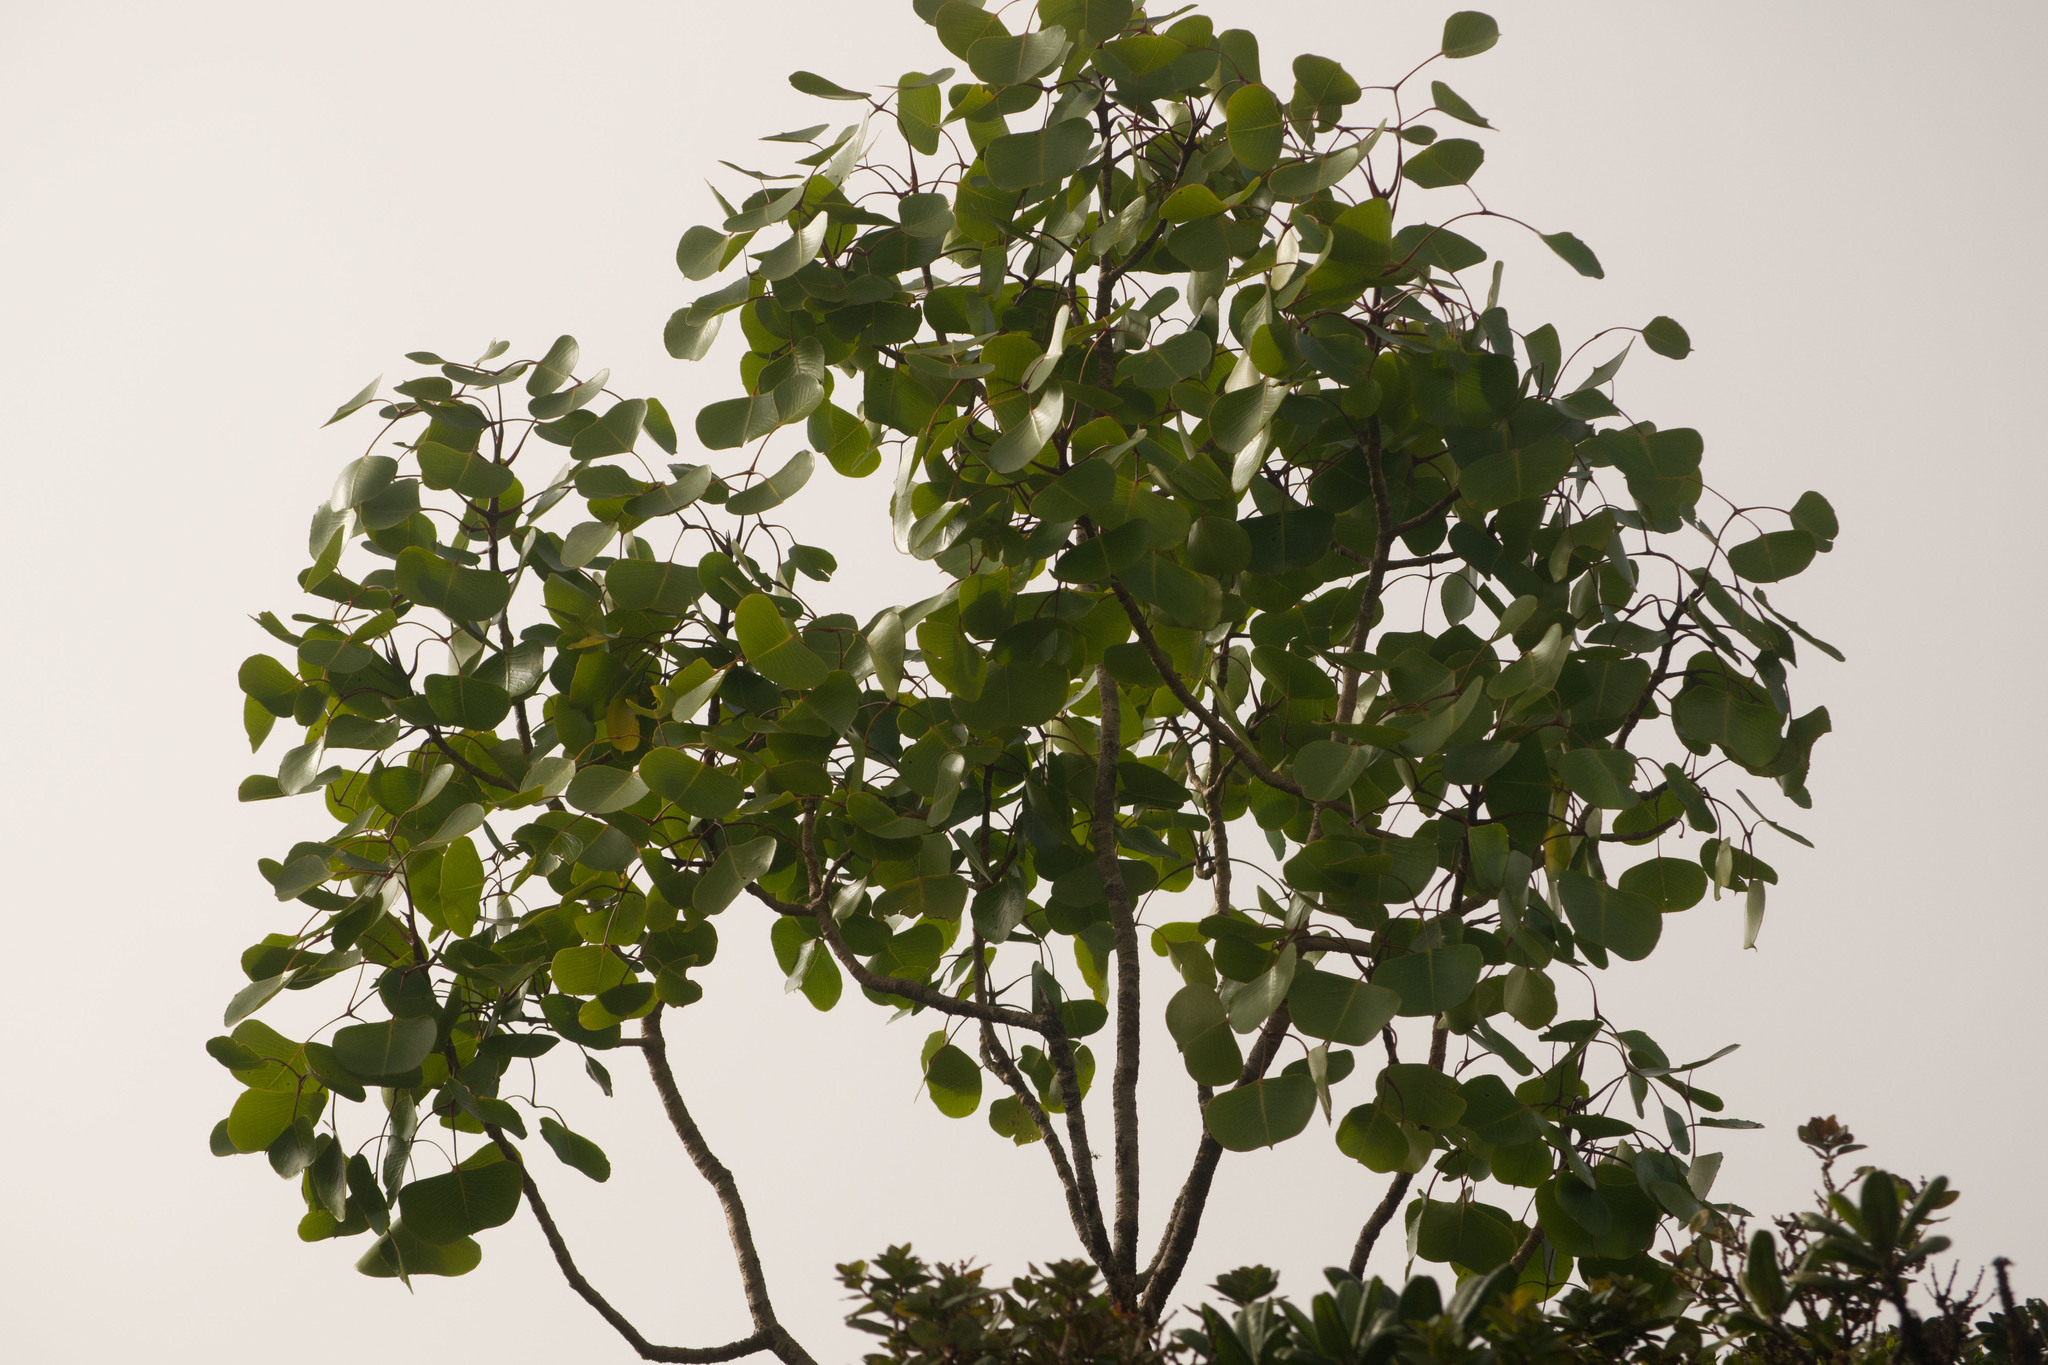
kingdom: Plantae
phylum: Tracheophyta
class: Magnoliopsida
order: Apiales
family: Araliaceae
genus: Cheirodendron
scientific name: Cheirodendron platyphyllum
